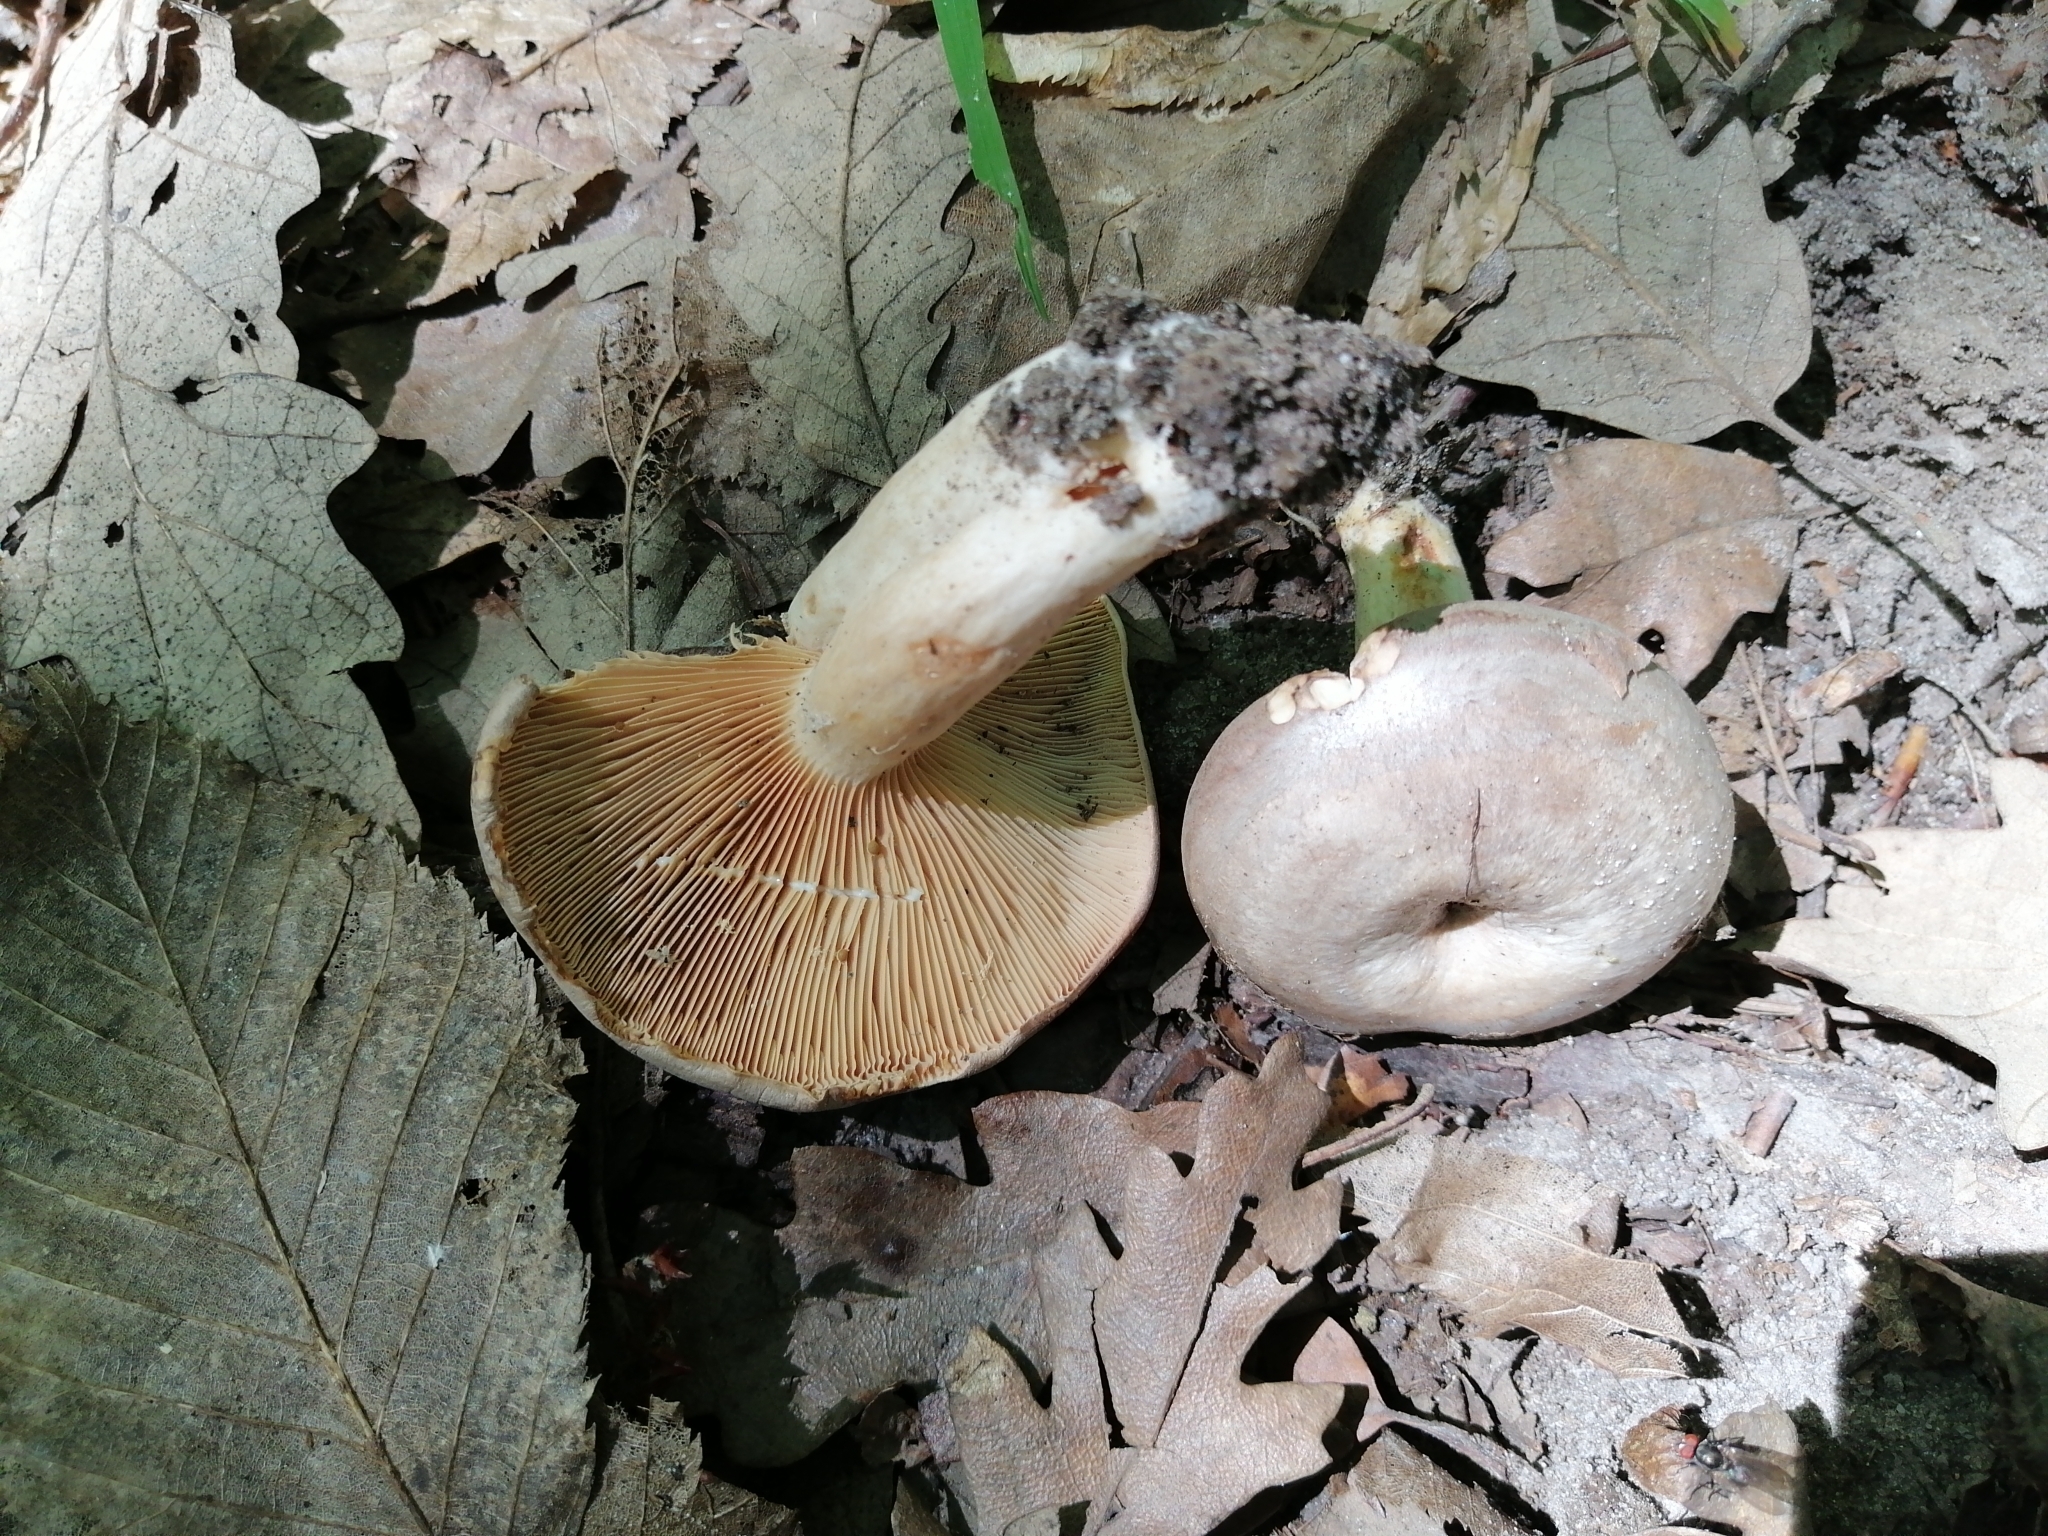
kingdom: Fungi
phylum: Basidiomycota
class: Agaricomycetes
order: Russulales
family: Russulaceae
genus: Lactarius
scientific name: Lactarius circellatus
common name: Circled milkcap
